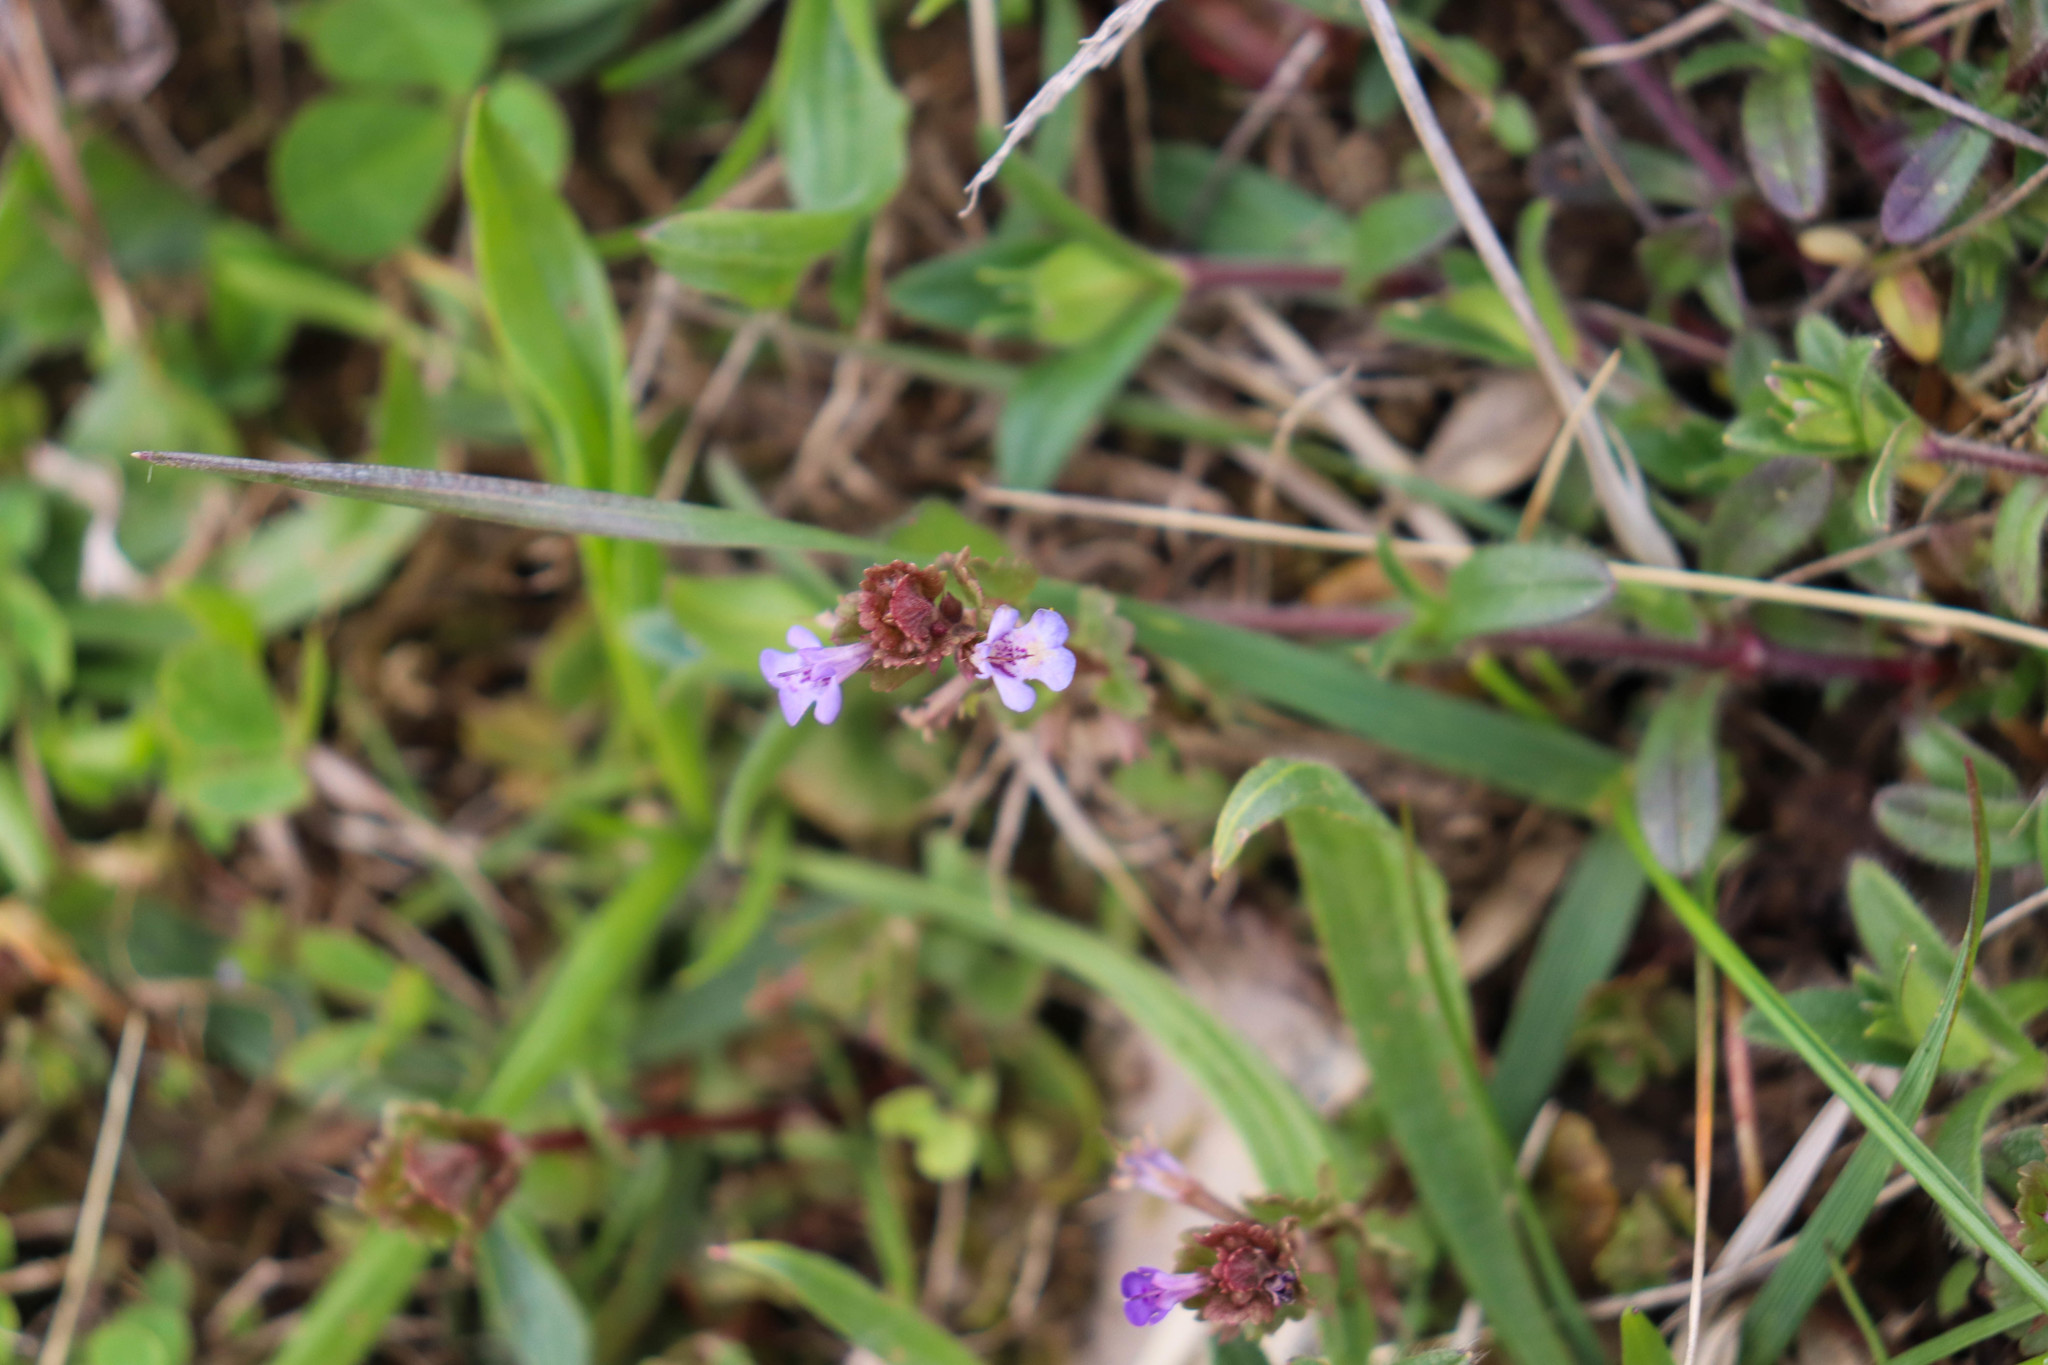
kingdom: Plantae
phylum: Tracheophyta
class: Magnoliopsida
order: Lamiales
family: Lamiaceae
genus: Glechoma
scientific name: Glechoma hederacea
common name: Ground ivy
